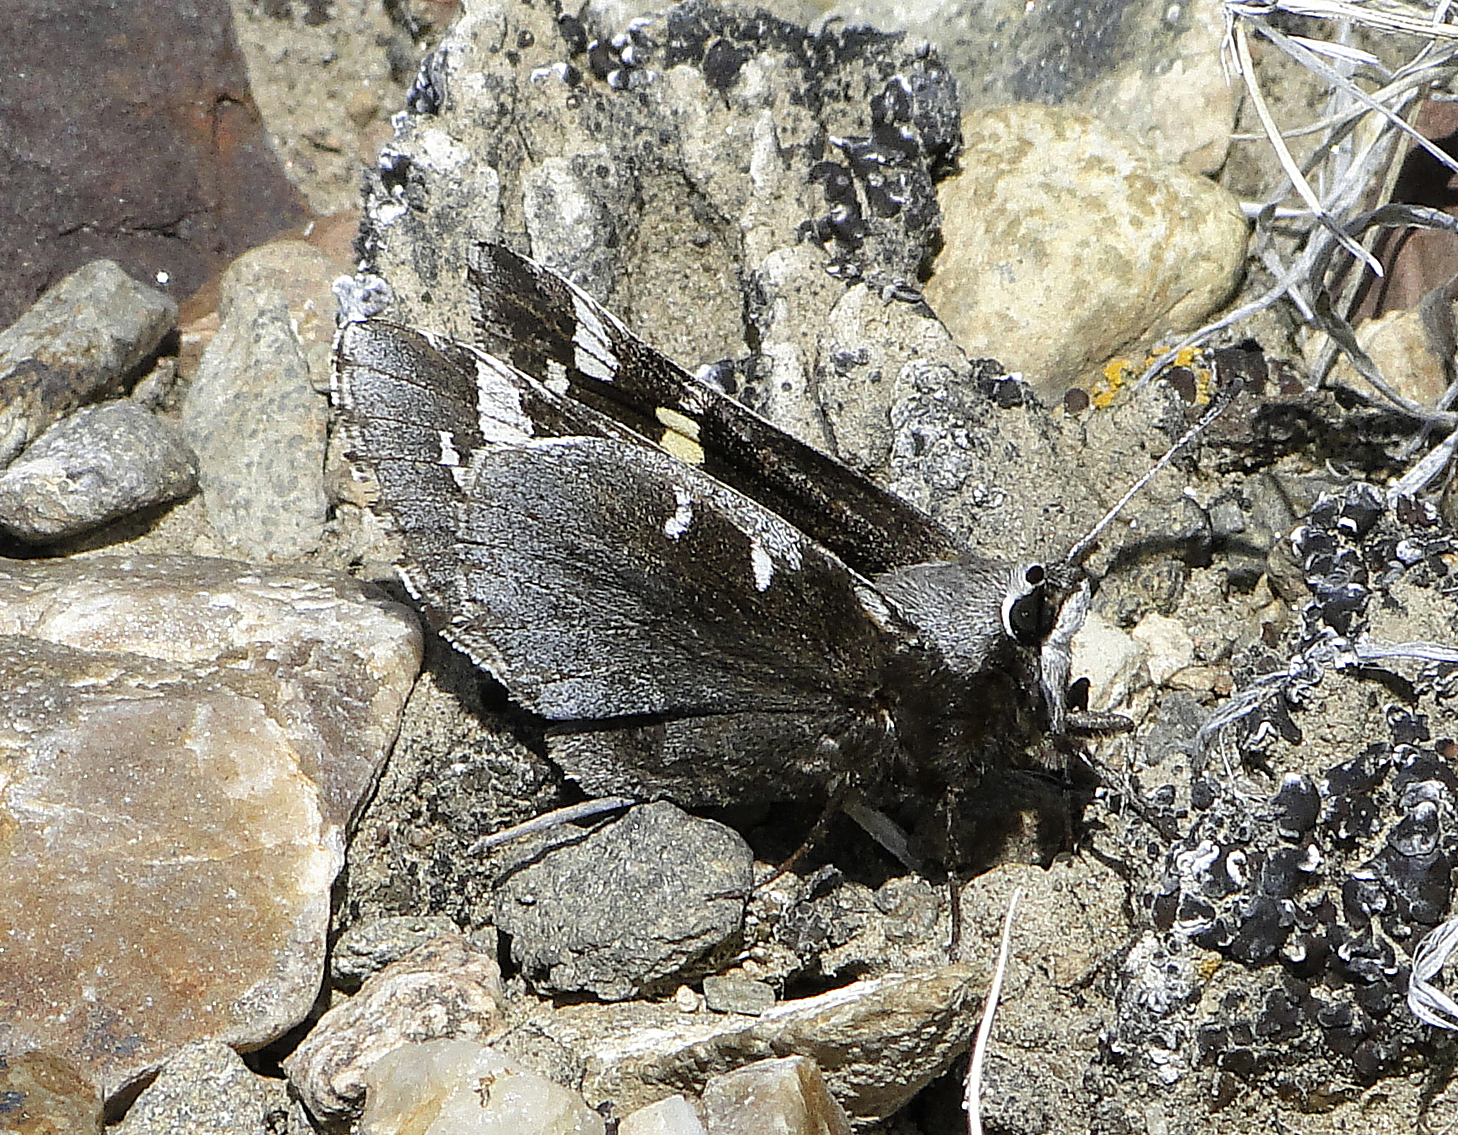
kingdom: Animalia
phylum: Arthropoda
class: Insecta
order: Lepidoptera
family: Hesperiidae
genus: Megathymus
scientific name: Megathymus yuccae
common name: Yucca giant-skipper
